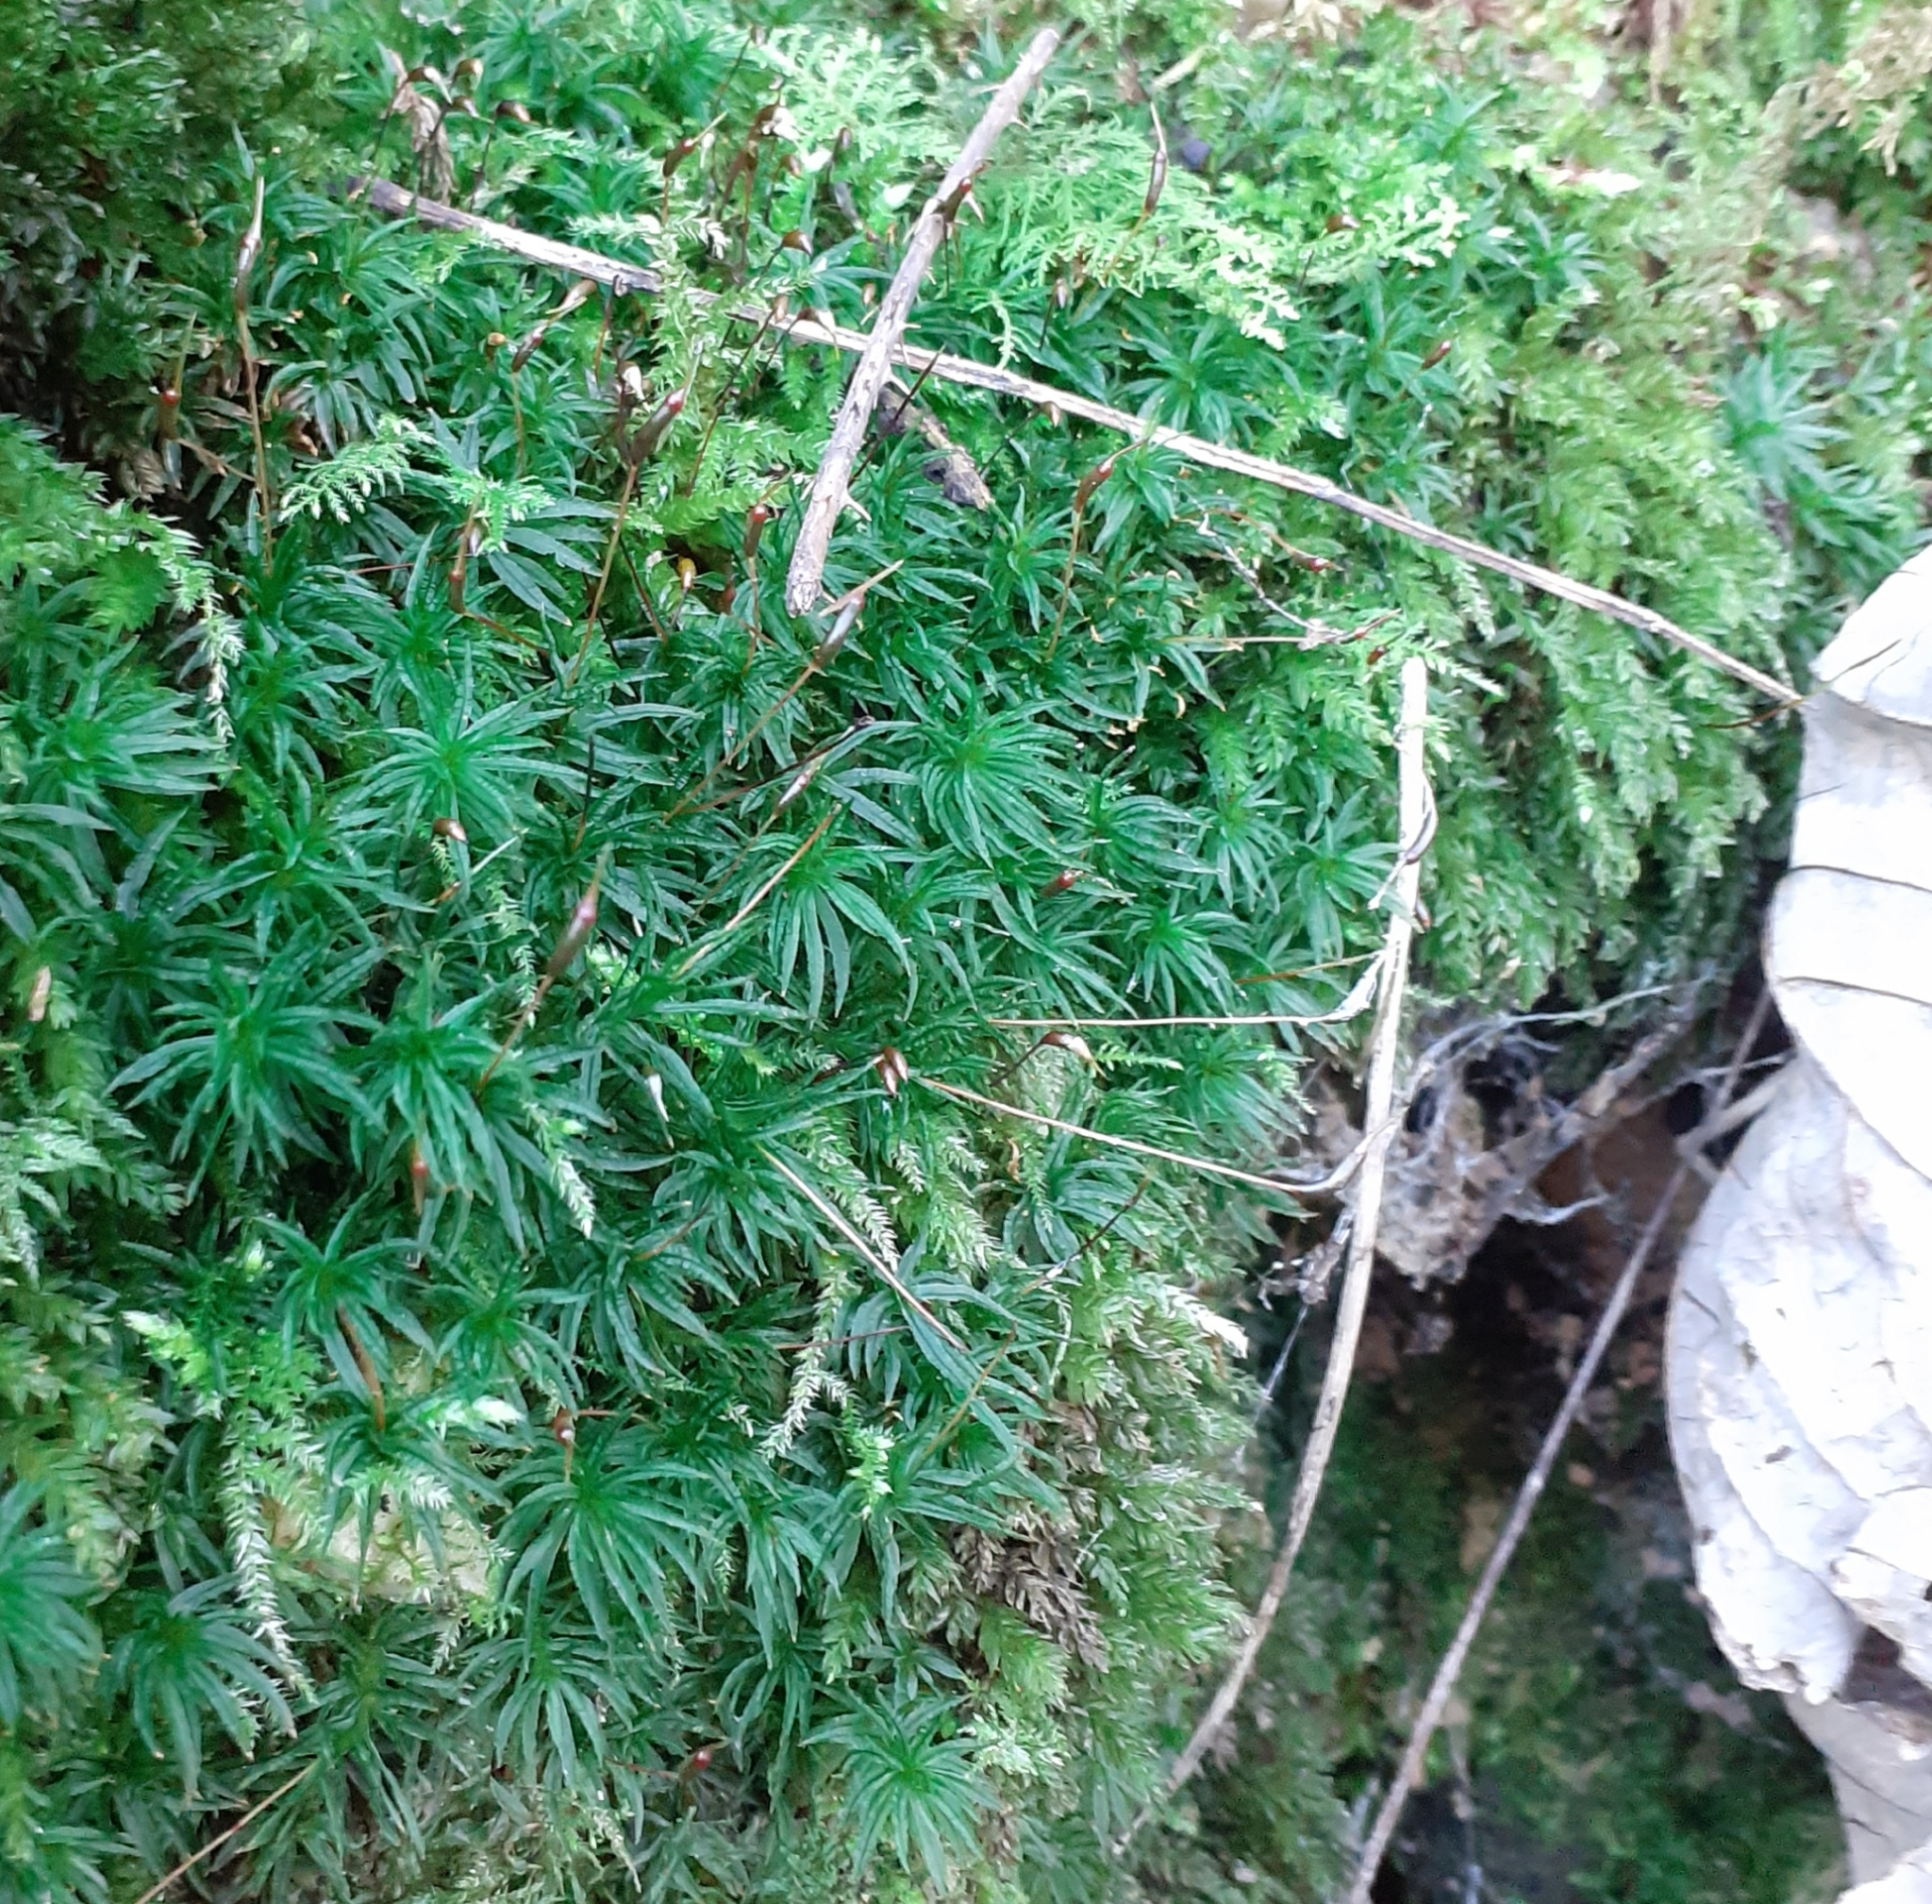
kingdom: Plantae
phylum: Bryophyta
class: Polytrichopsida
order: Polytrichales
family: Polytrichaceae
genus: Atrichum
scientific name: Atrichum undulatum
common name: Common smoothcap
